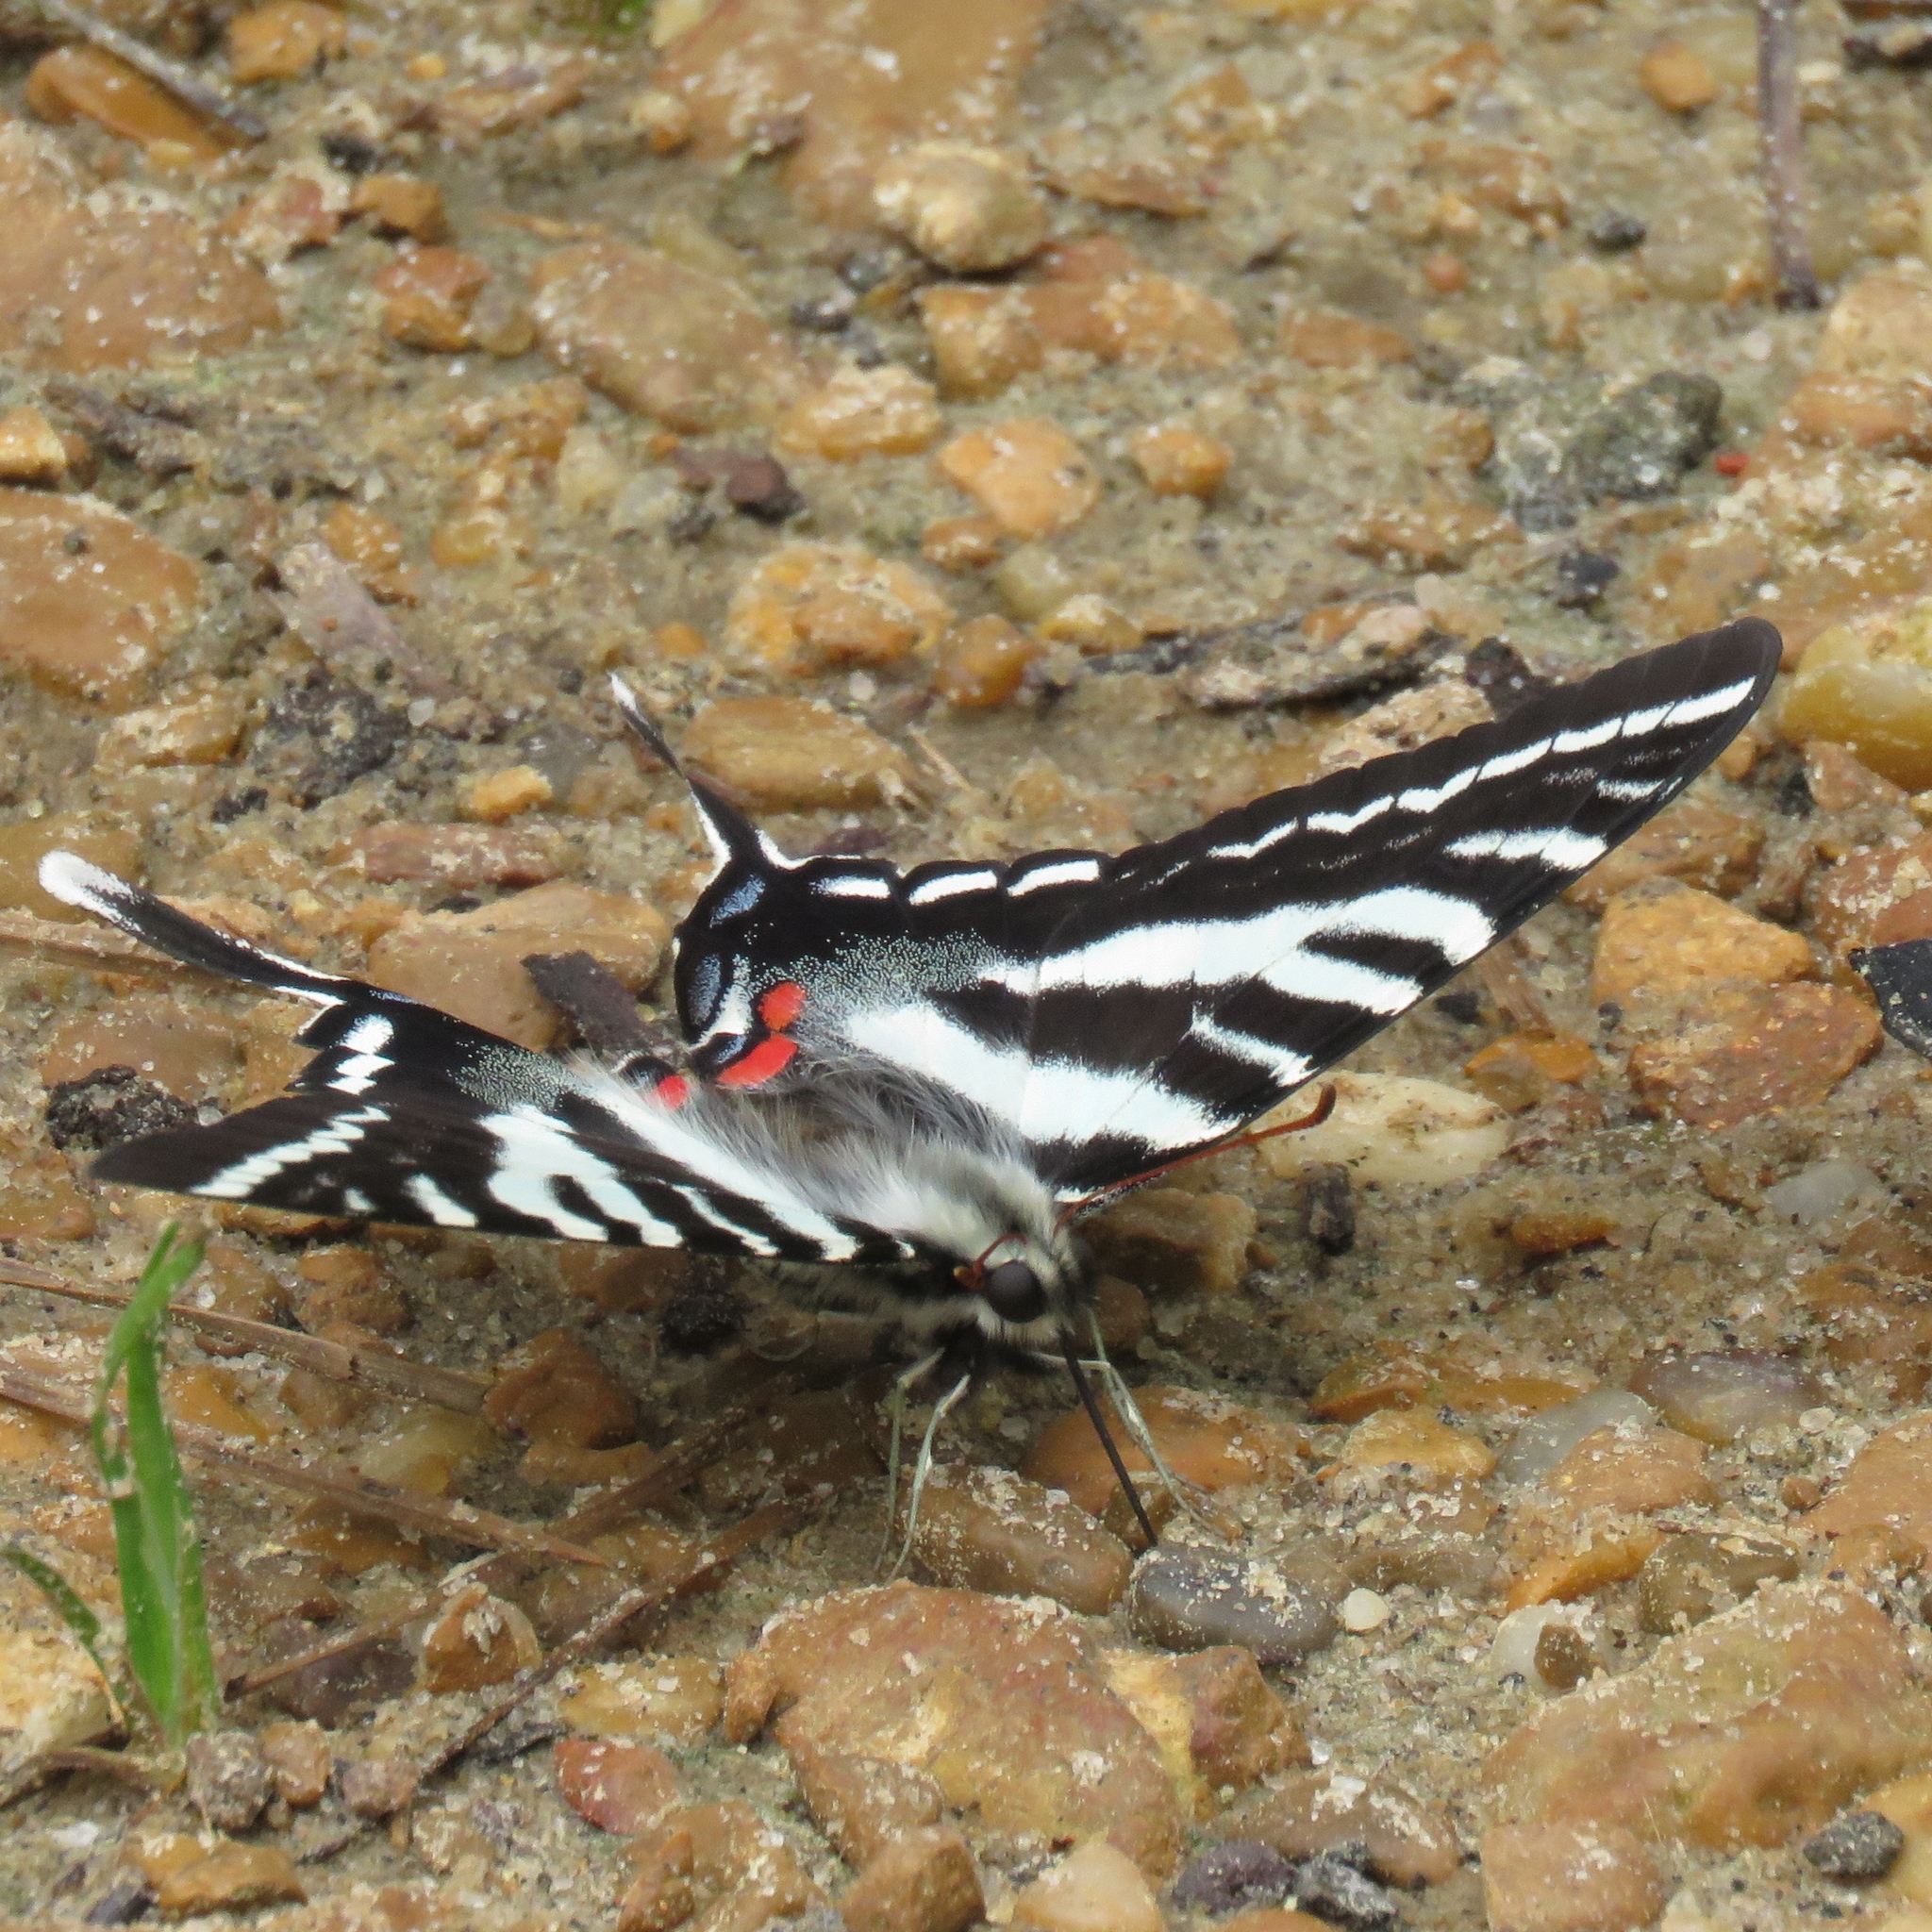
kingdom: Animalia
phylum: Arthropoda
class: Insecta
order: Lepidoptera
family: Papilionidae
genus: Protographium
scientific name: Protographium marcellus
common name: Zebra swallowtail
